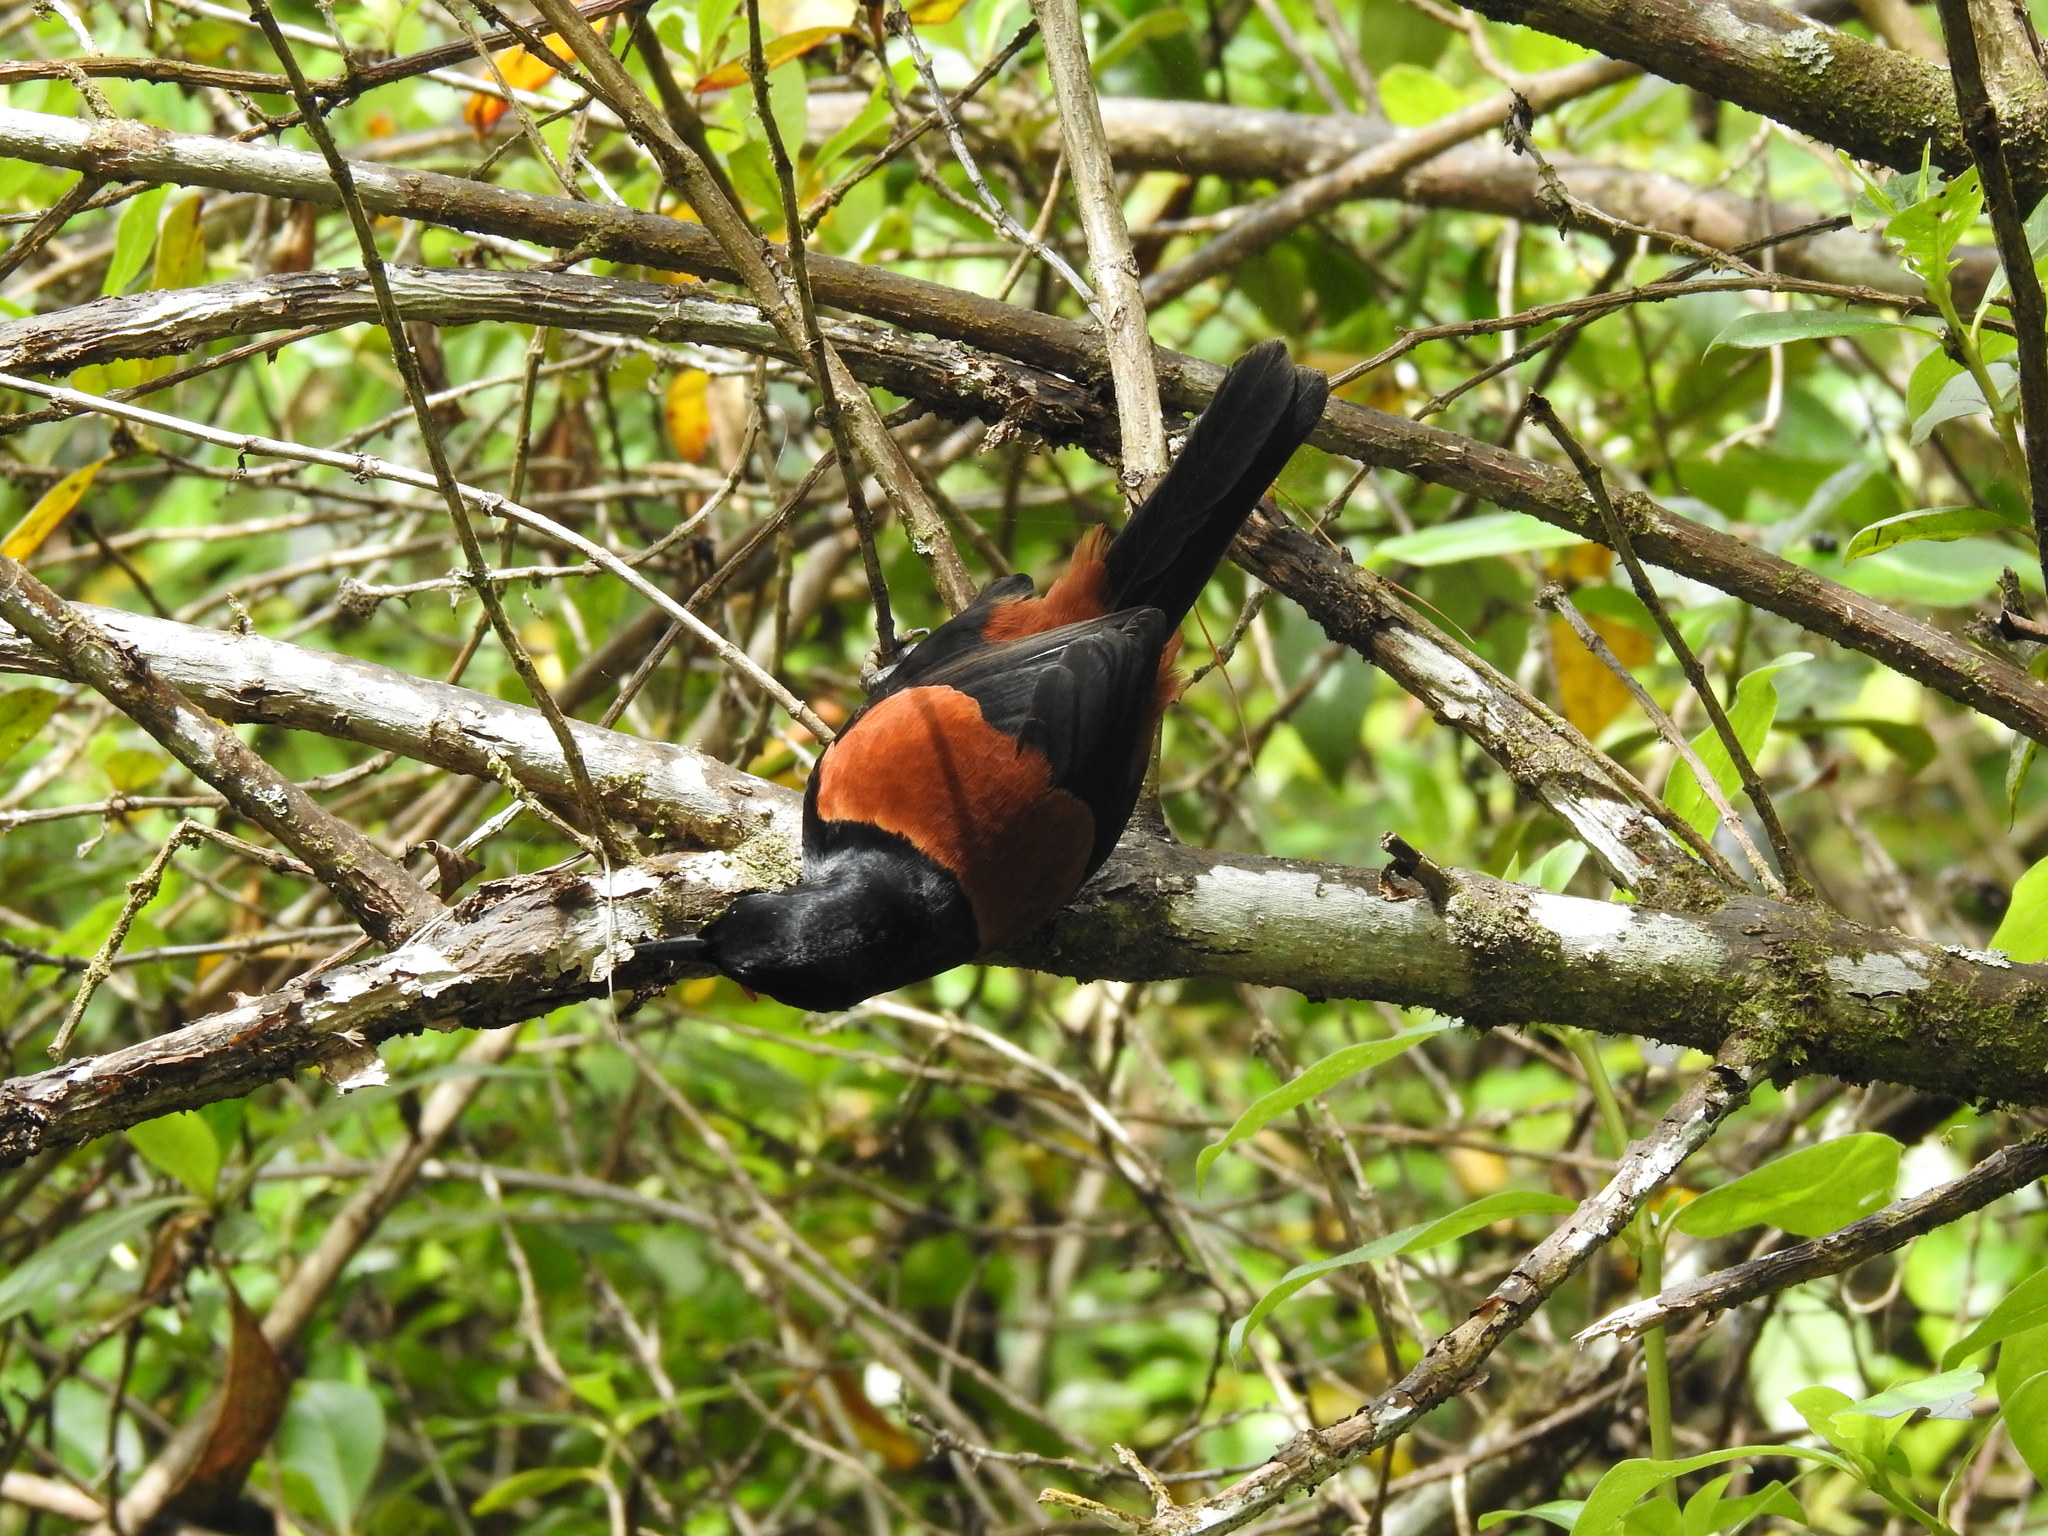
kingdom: Animalia
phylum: Chordata
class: Aves
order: Passeriformes
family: Callaeatidae
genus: Philesturnus
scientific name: Philesturnus carunculatus
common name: South island saddleback
